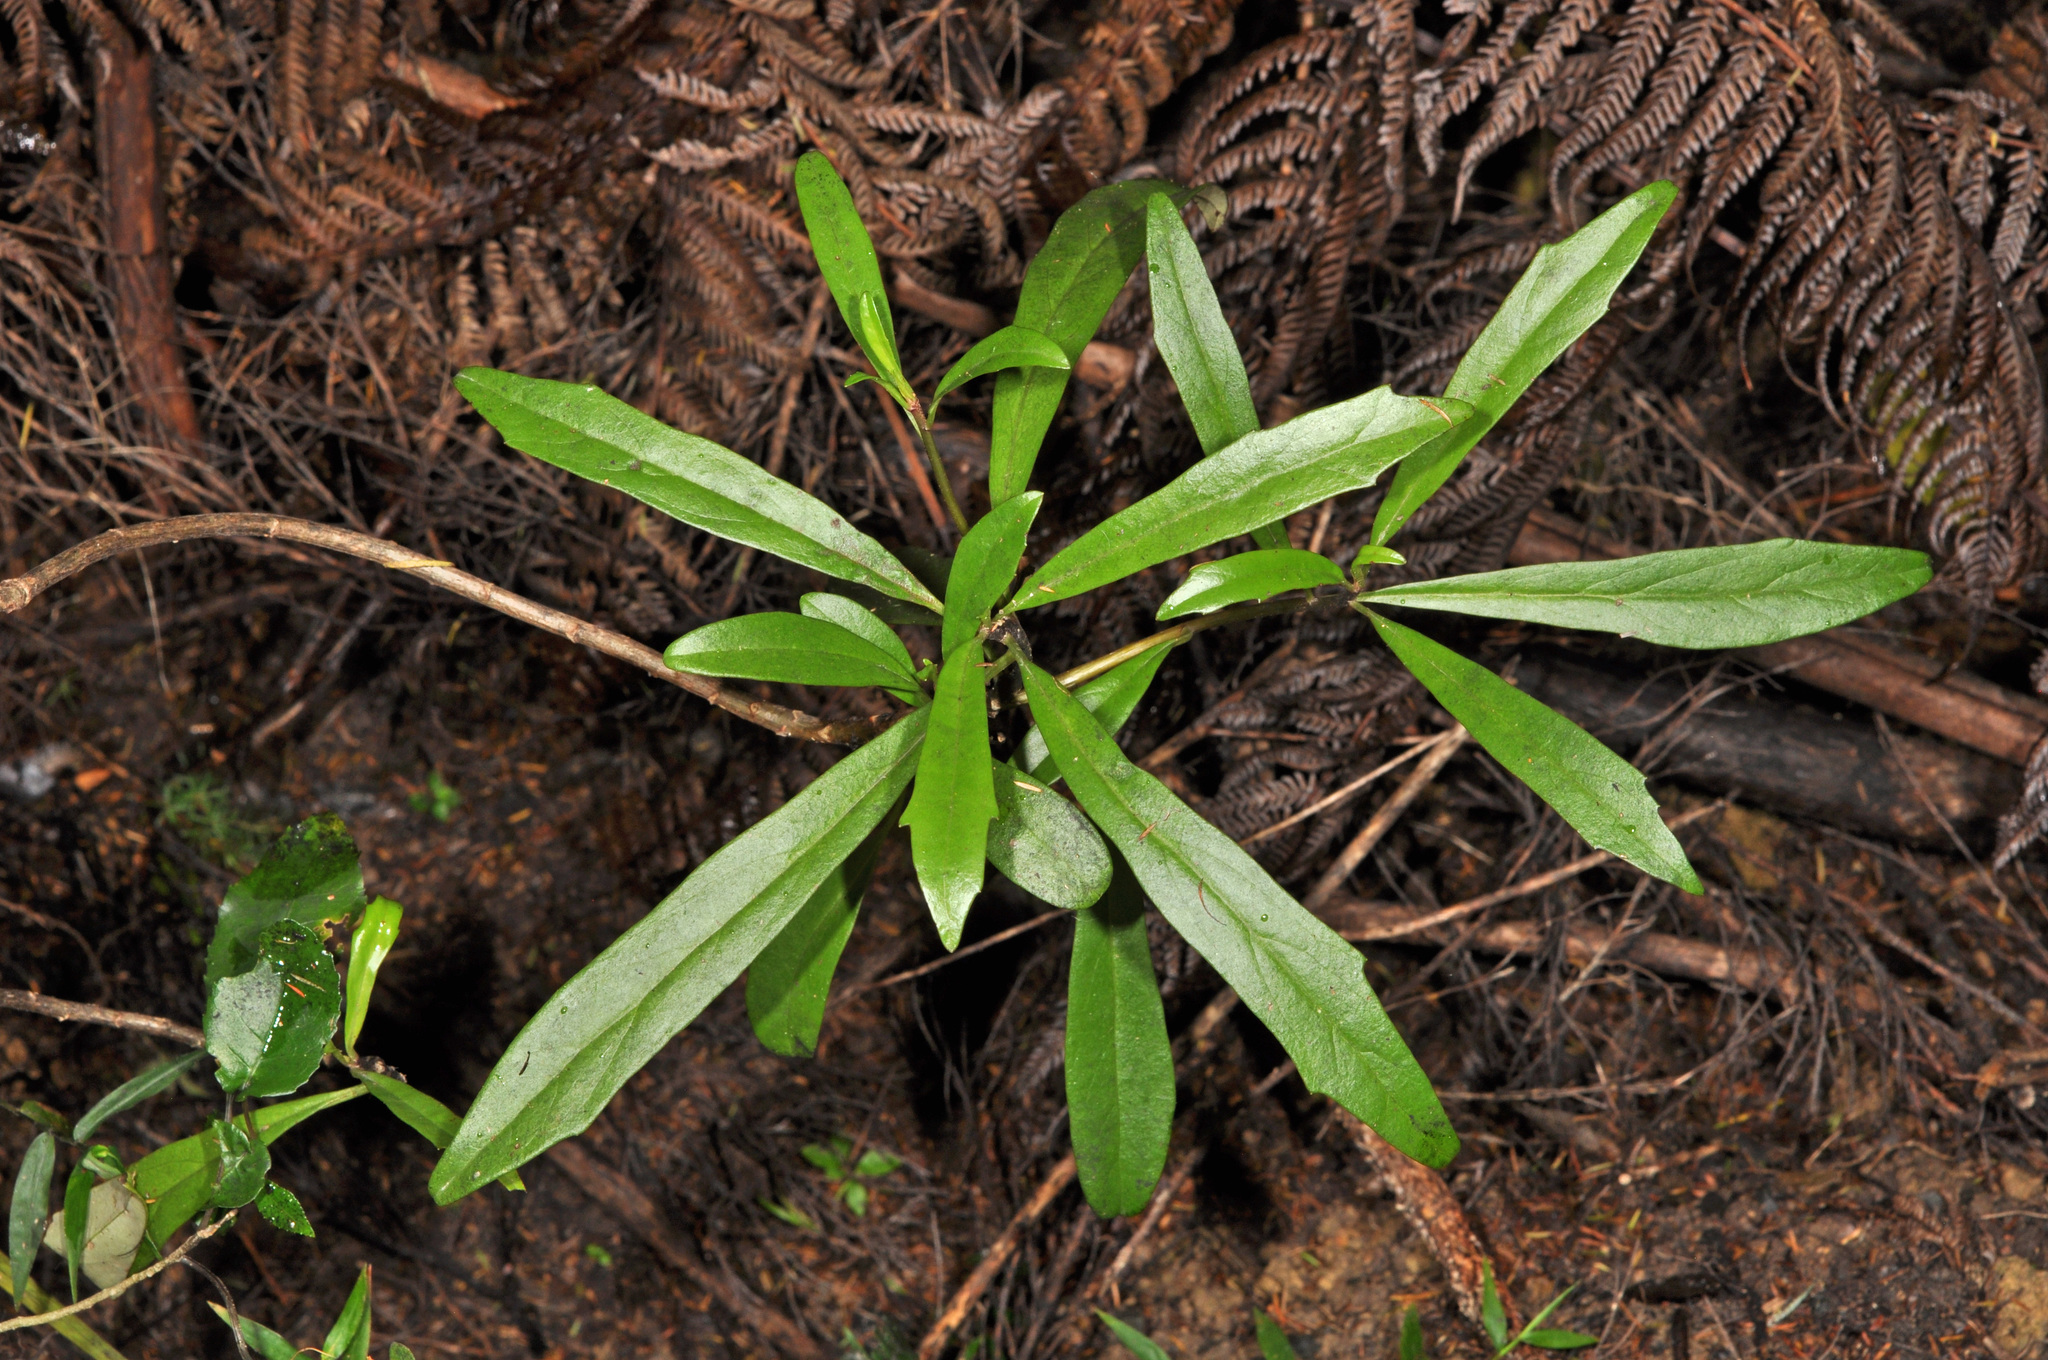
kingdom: Plantae
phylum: Tracheophyta
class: Magnoliopsida
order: Asterales
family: Asteraceae
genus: Brachyglottis
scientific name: Brachyglottis kirkii
